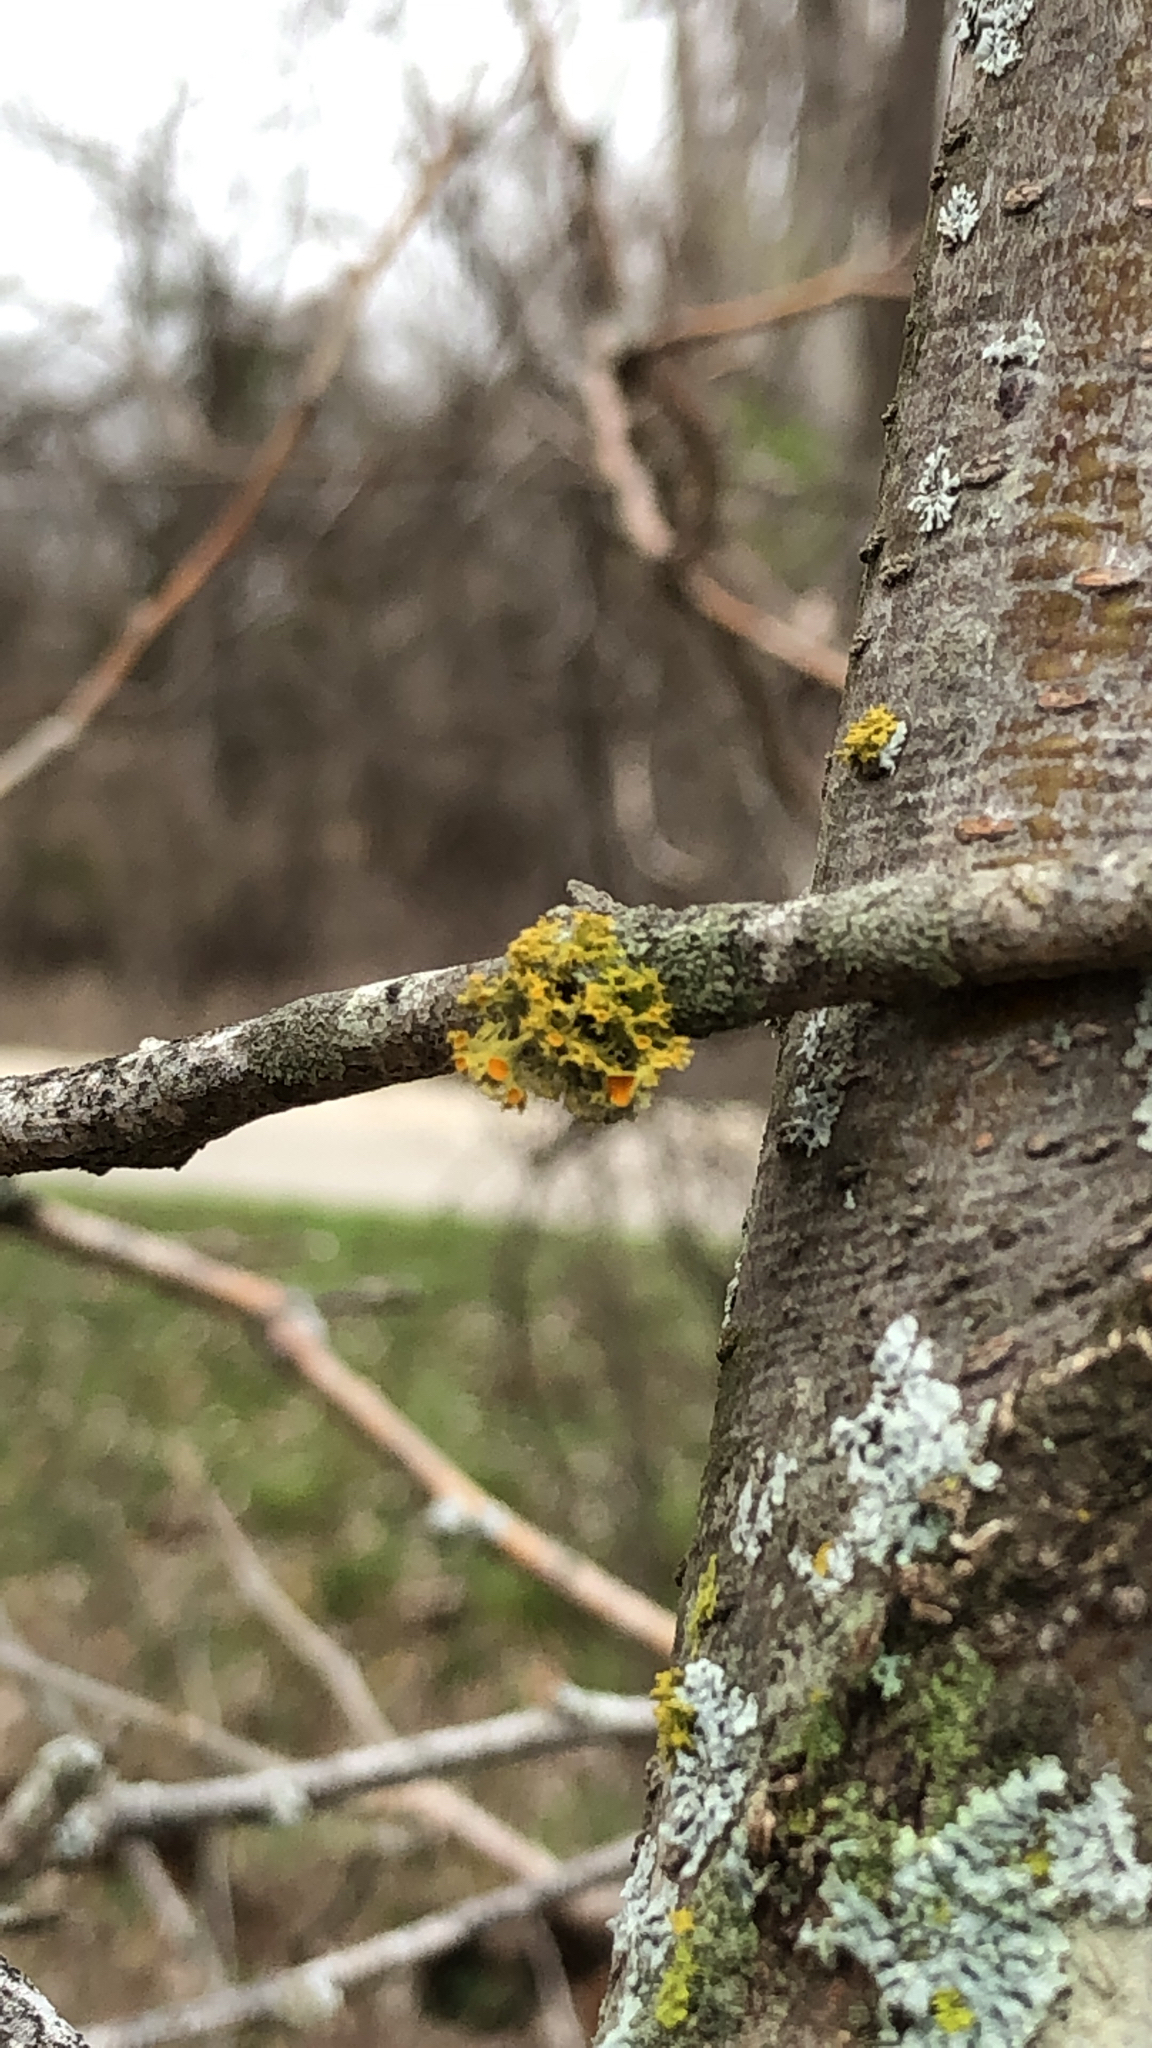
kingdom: Fungi
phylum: Ascomycota
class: Lecanoromycetes
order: Teloschistales
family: Teloschistaceae
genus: Niorma
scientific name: Niorma chrysophthalma
